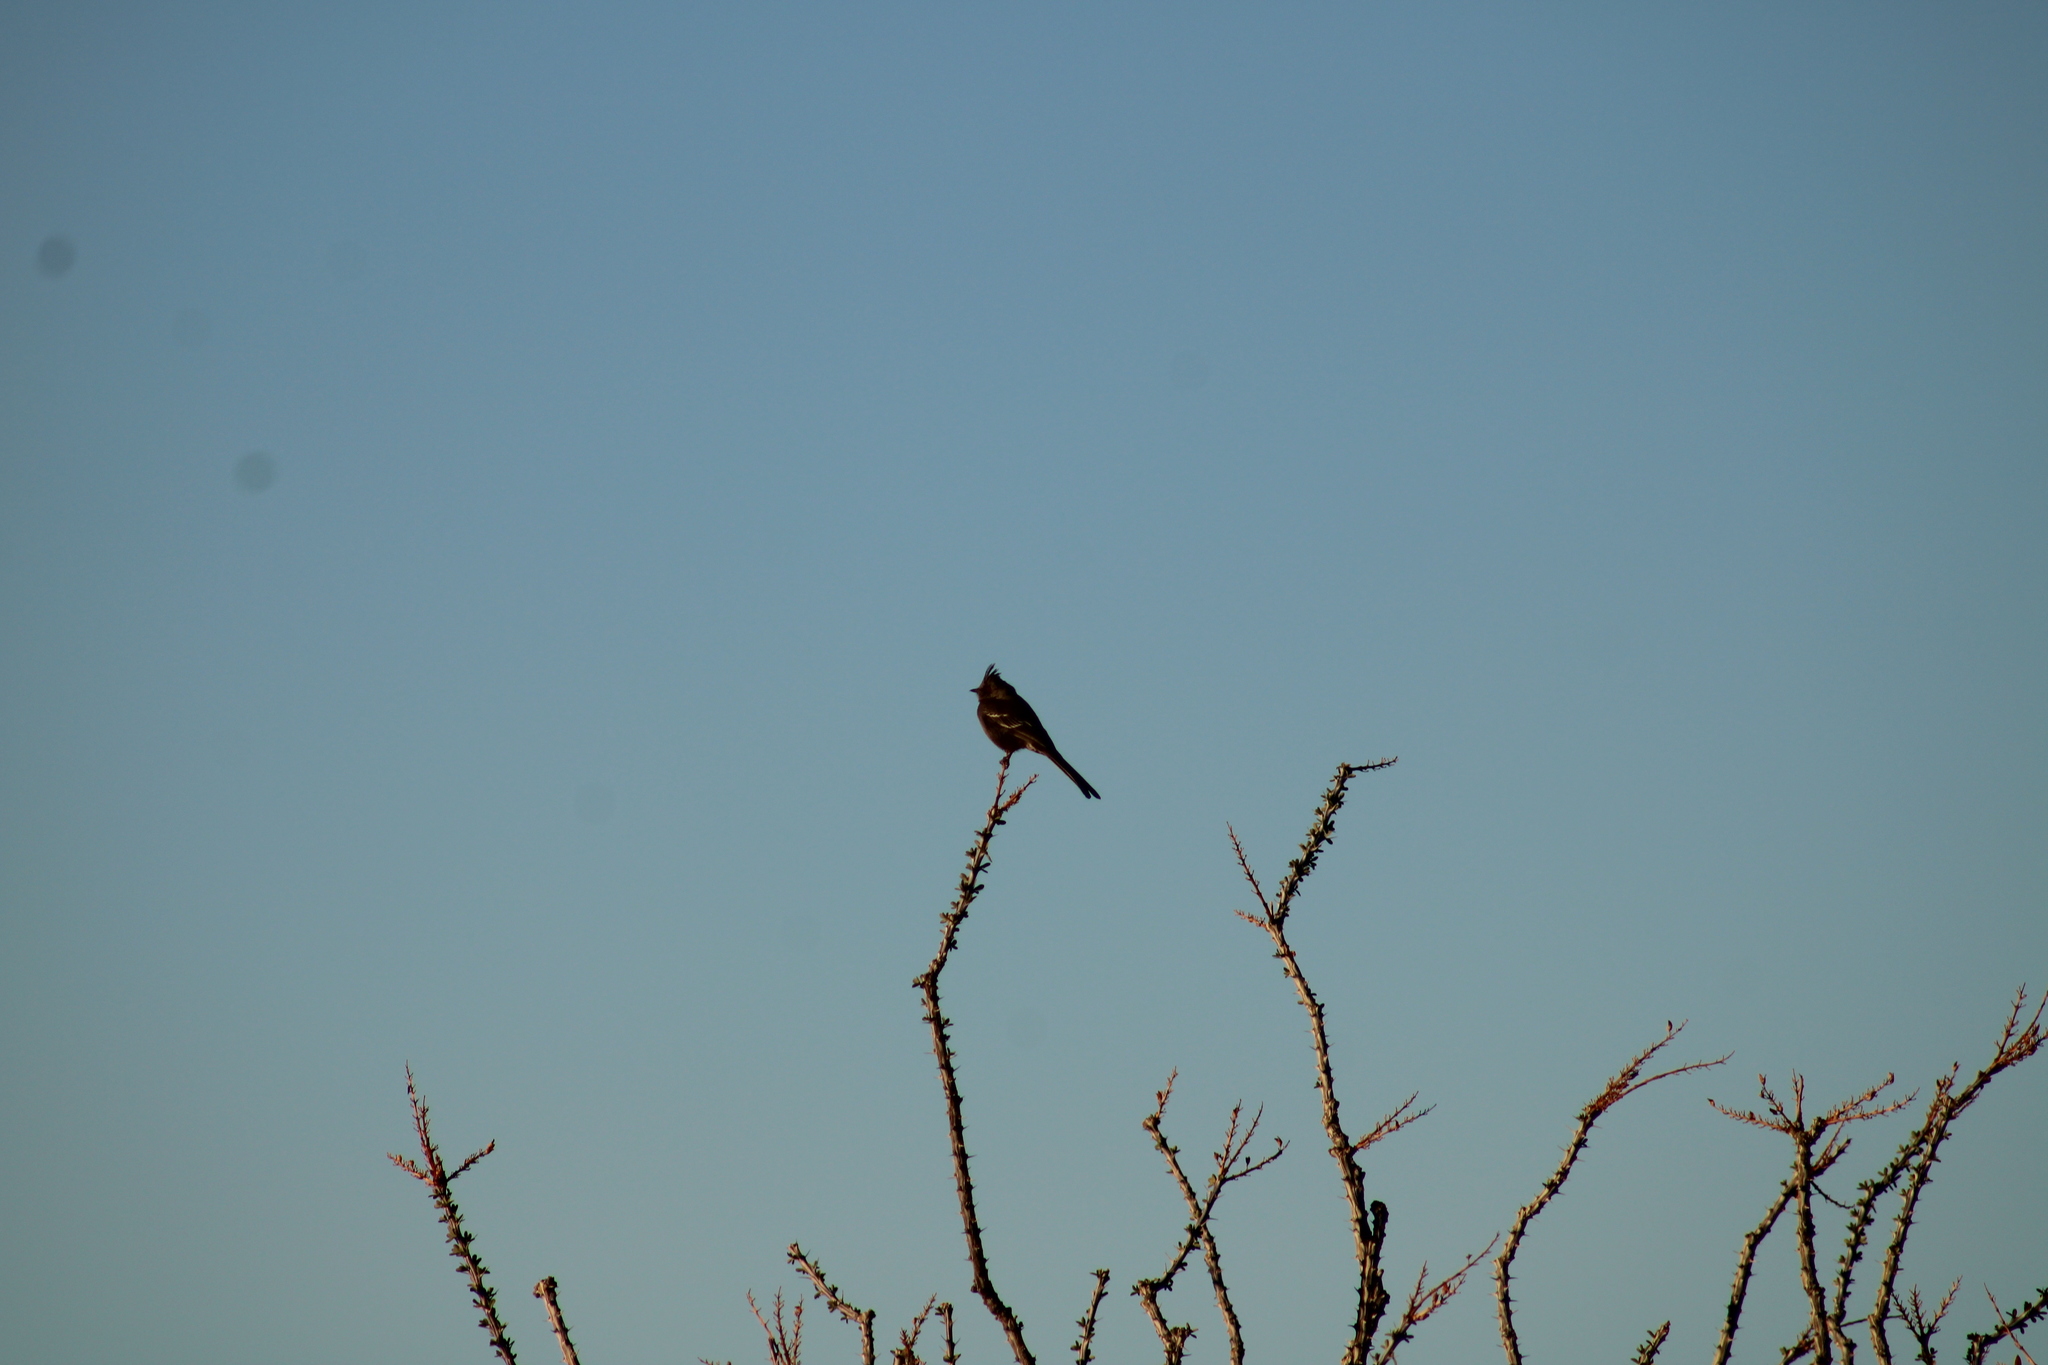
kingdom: Animalia
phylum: Chordata
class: Aves
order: Passeriformes
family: Ptilogonatidae
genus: Phainopepla
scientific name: Phainopepla nitens
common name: Phainopepla
